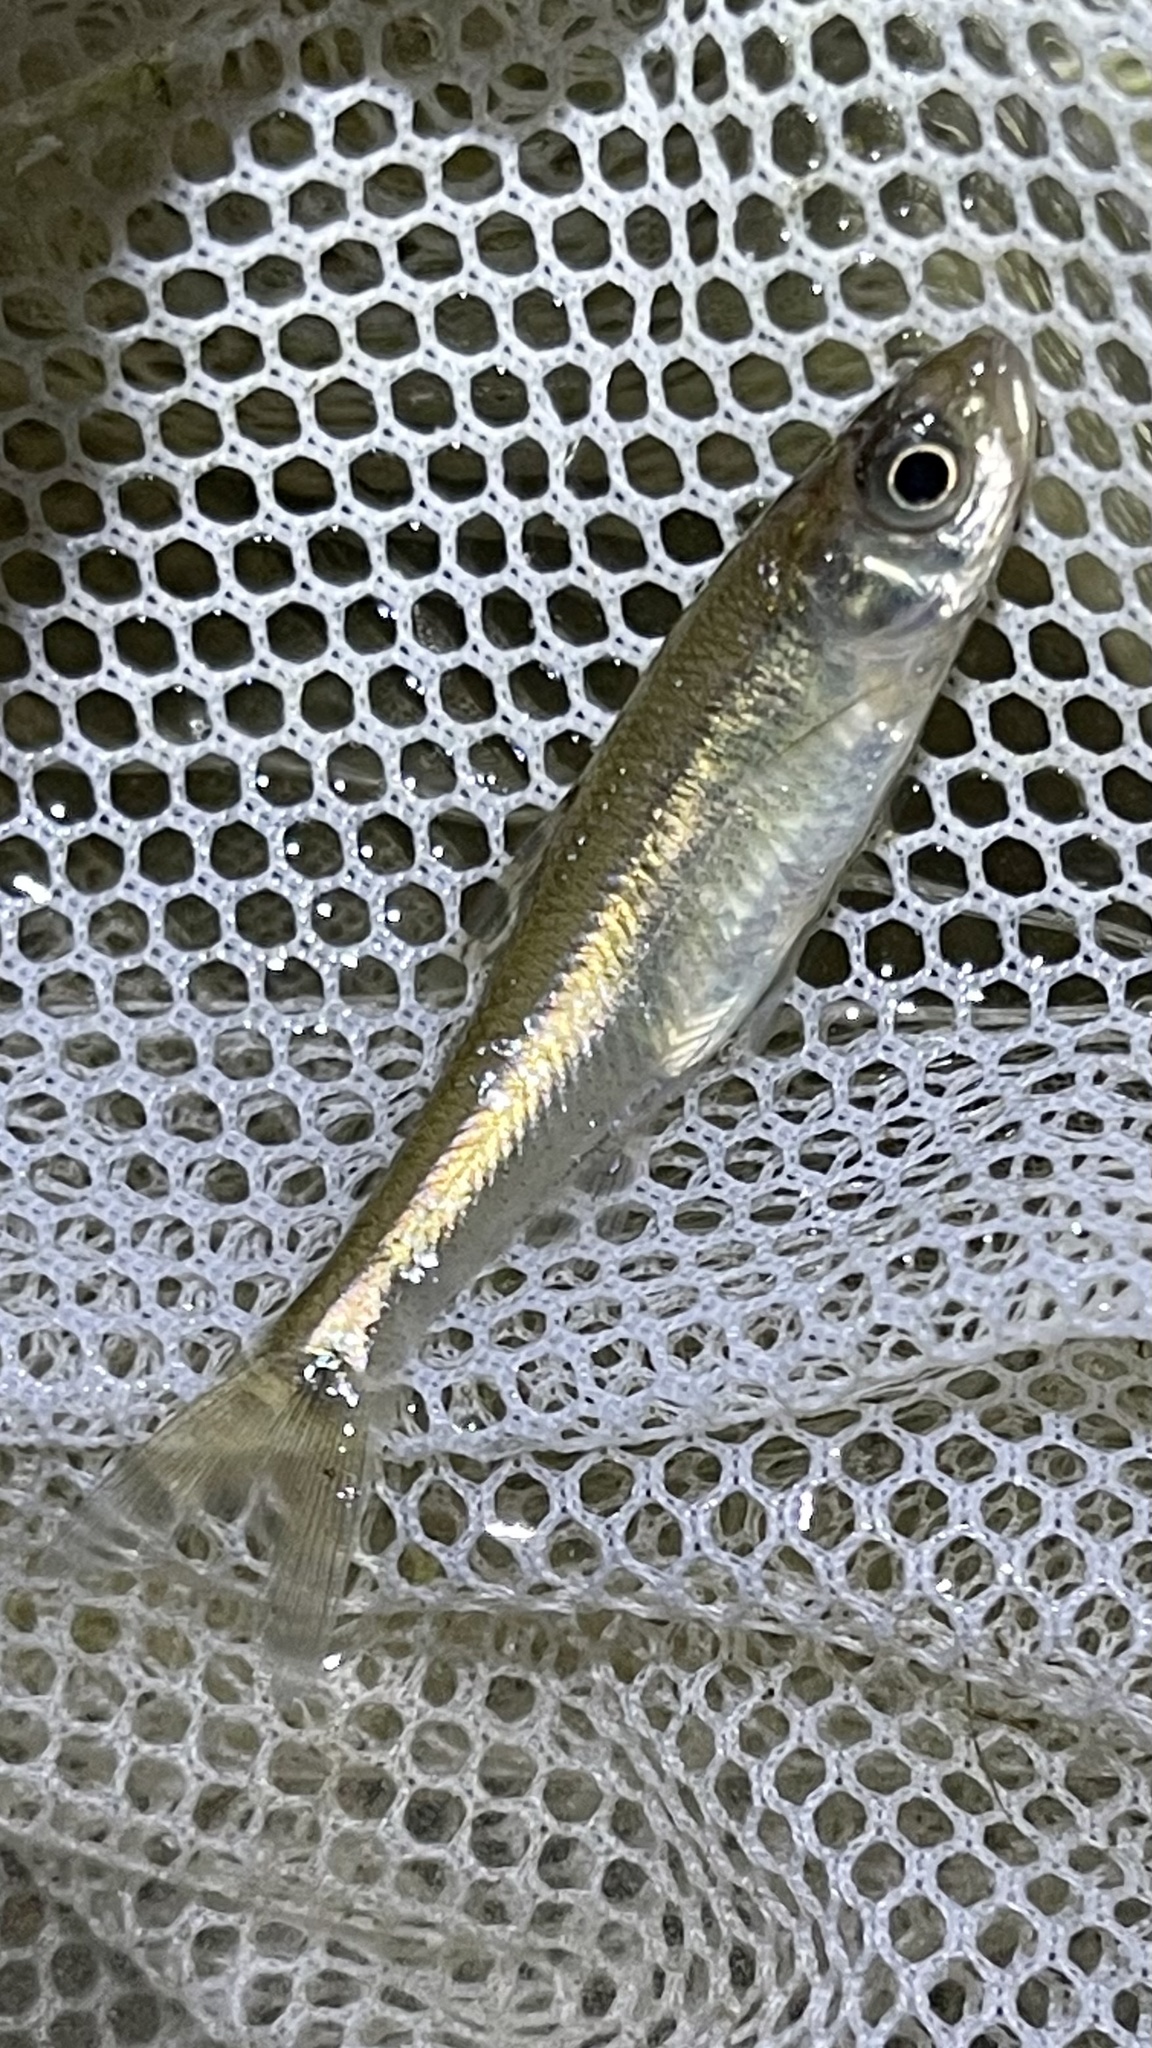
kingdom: Animalia
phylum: Chordata
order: Cypriniformes
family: Cyprinidae
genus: Luxilus
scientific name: Luxilus cornutus
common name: Common shiner
